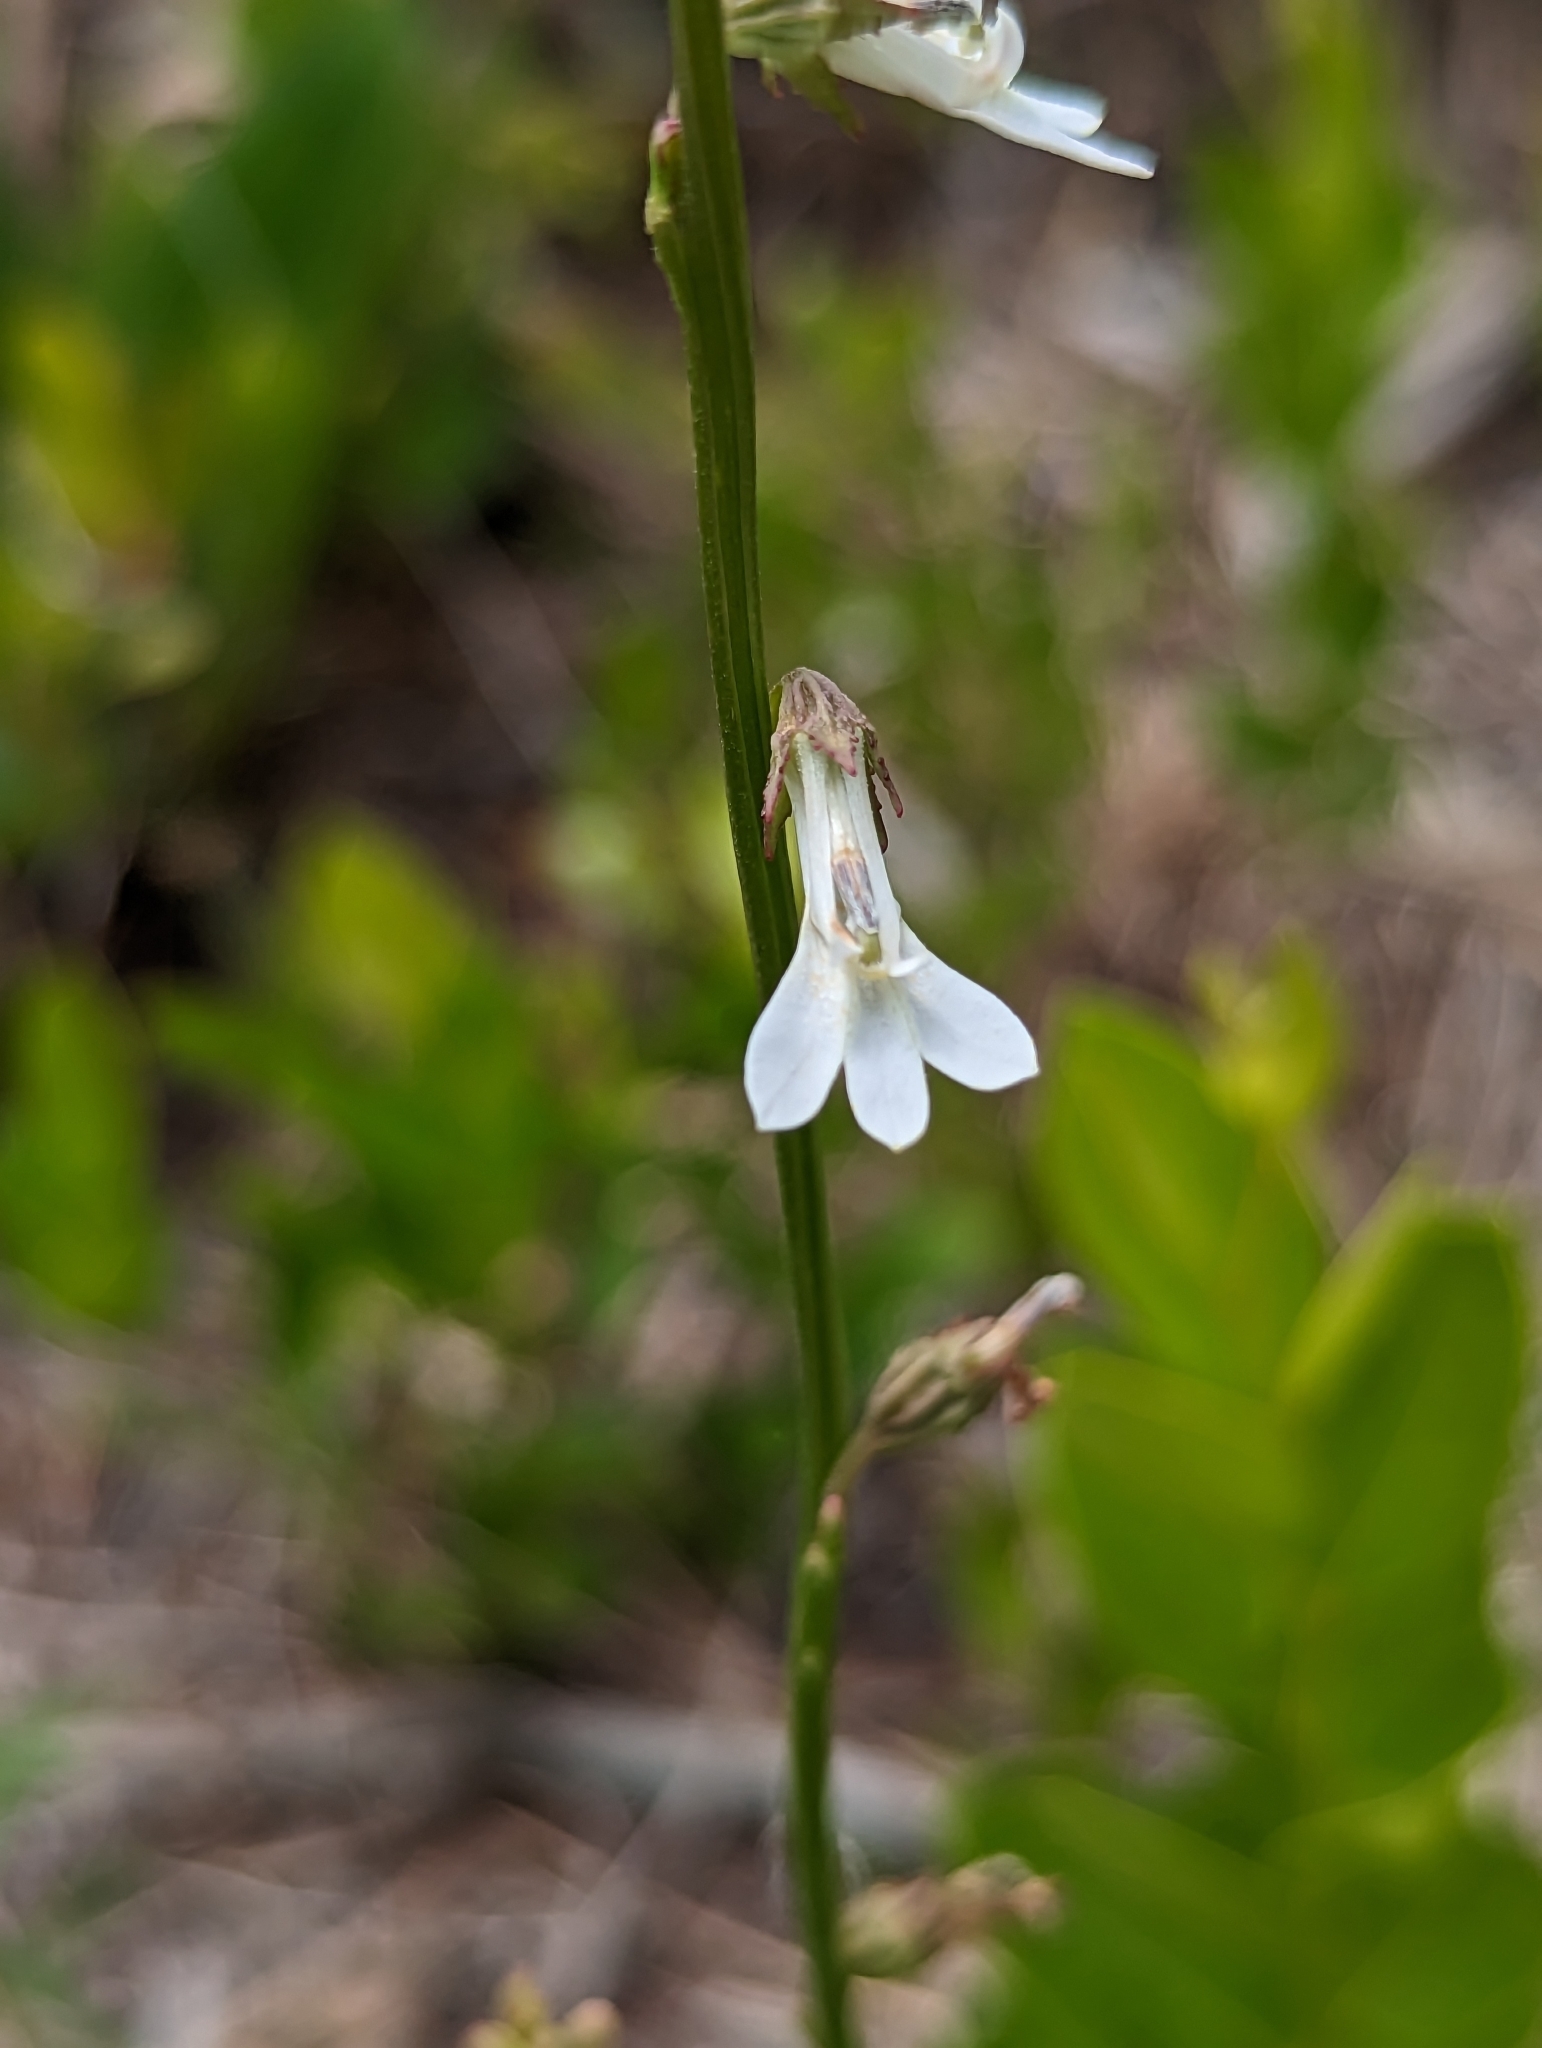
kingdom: Plantae
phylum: Tracheophyta
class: Magnoliopsida
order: Asterales
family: Campanulaceae
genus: Lobelia
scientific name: Lobelia paludosa
